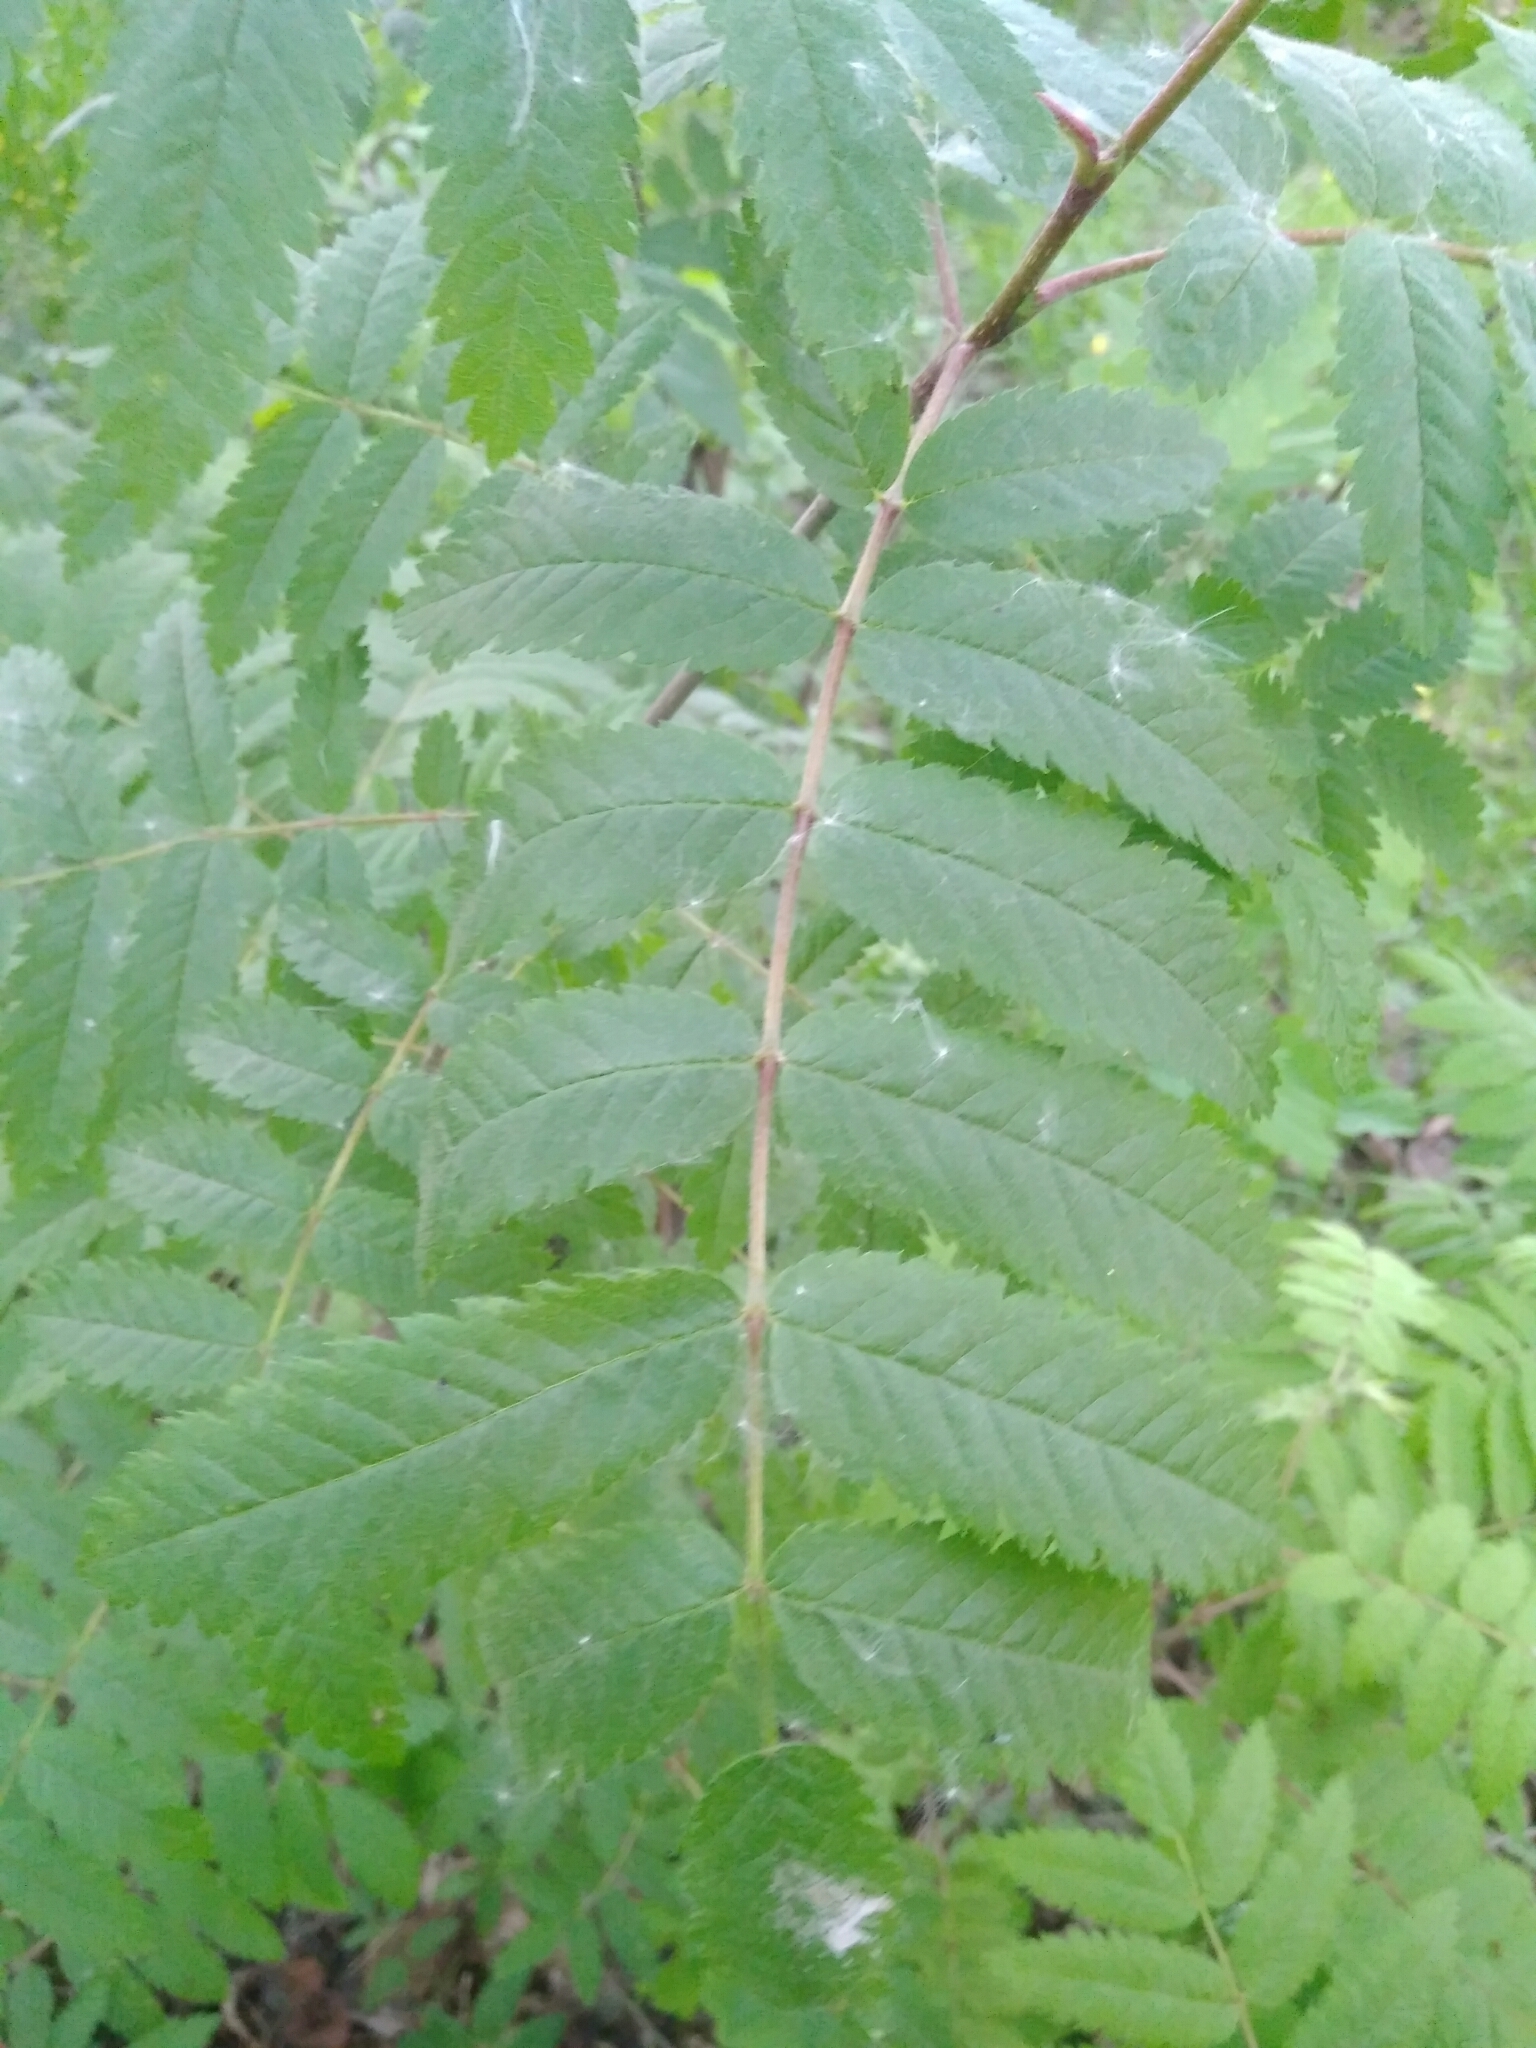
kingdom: Plantae
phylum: Tracheophyta
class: Magnoliopsida
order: Rosales
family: Rosaceae
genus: Sorbus
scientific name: Sorbus aucuparia
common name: Rowan
